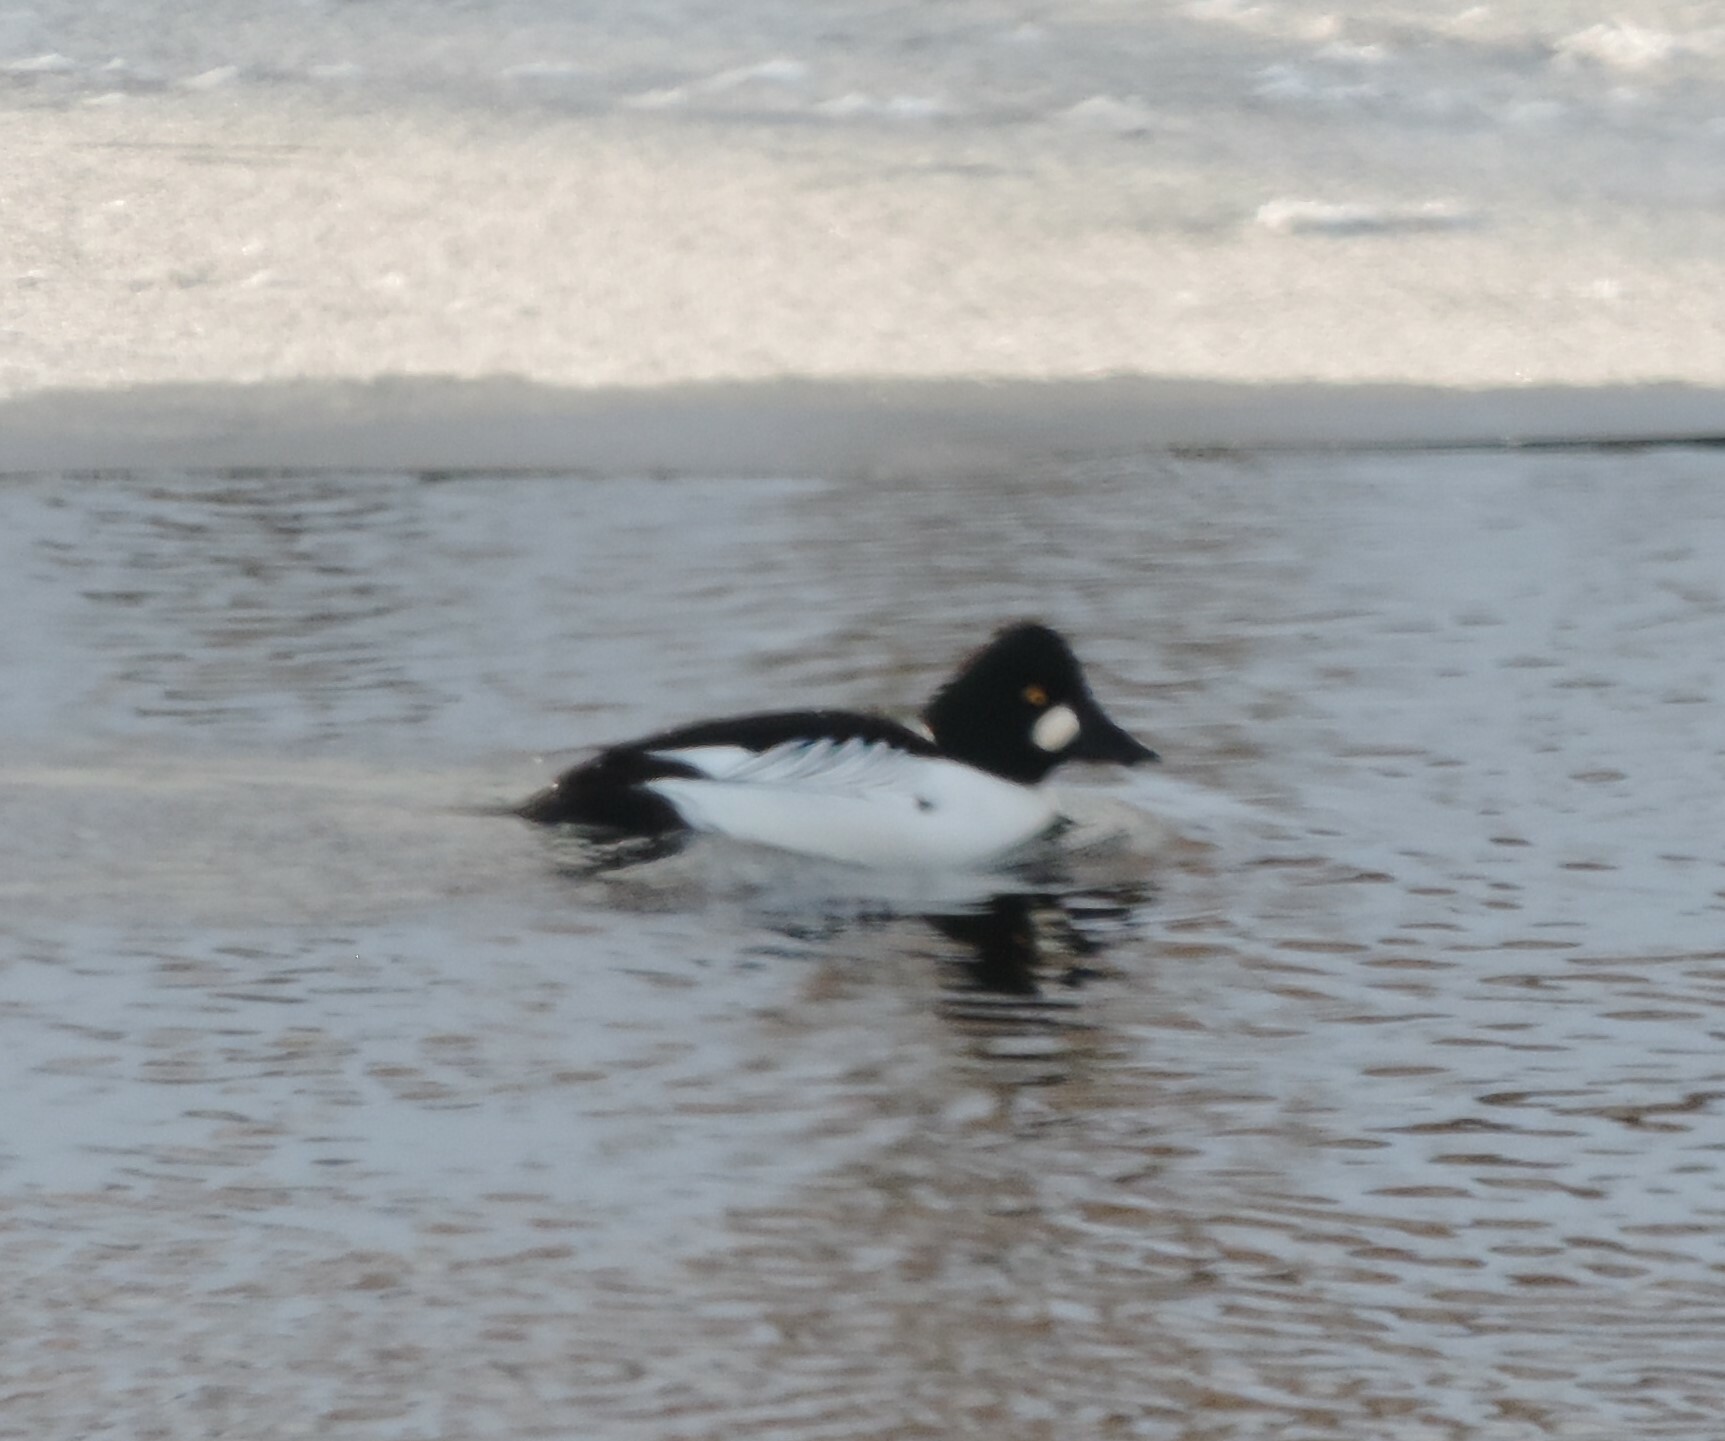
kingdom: Animalia
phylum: Chordata
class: Aves
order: Anseriformes
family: Anatidae
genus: Bucephala
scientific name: Bucephala clangula
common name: Common goldeneye
